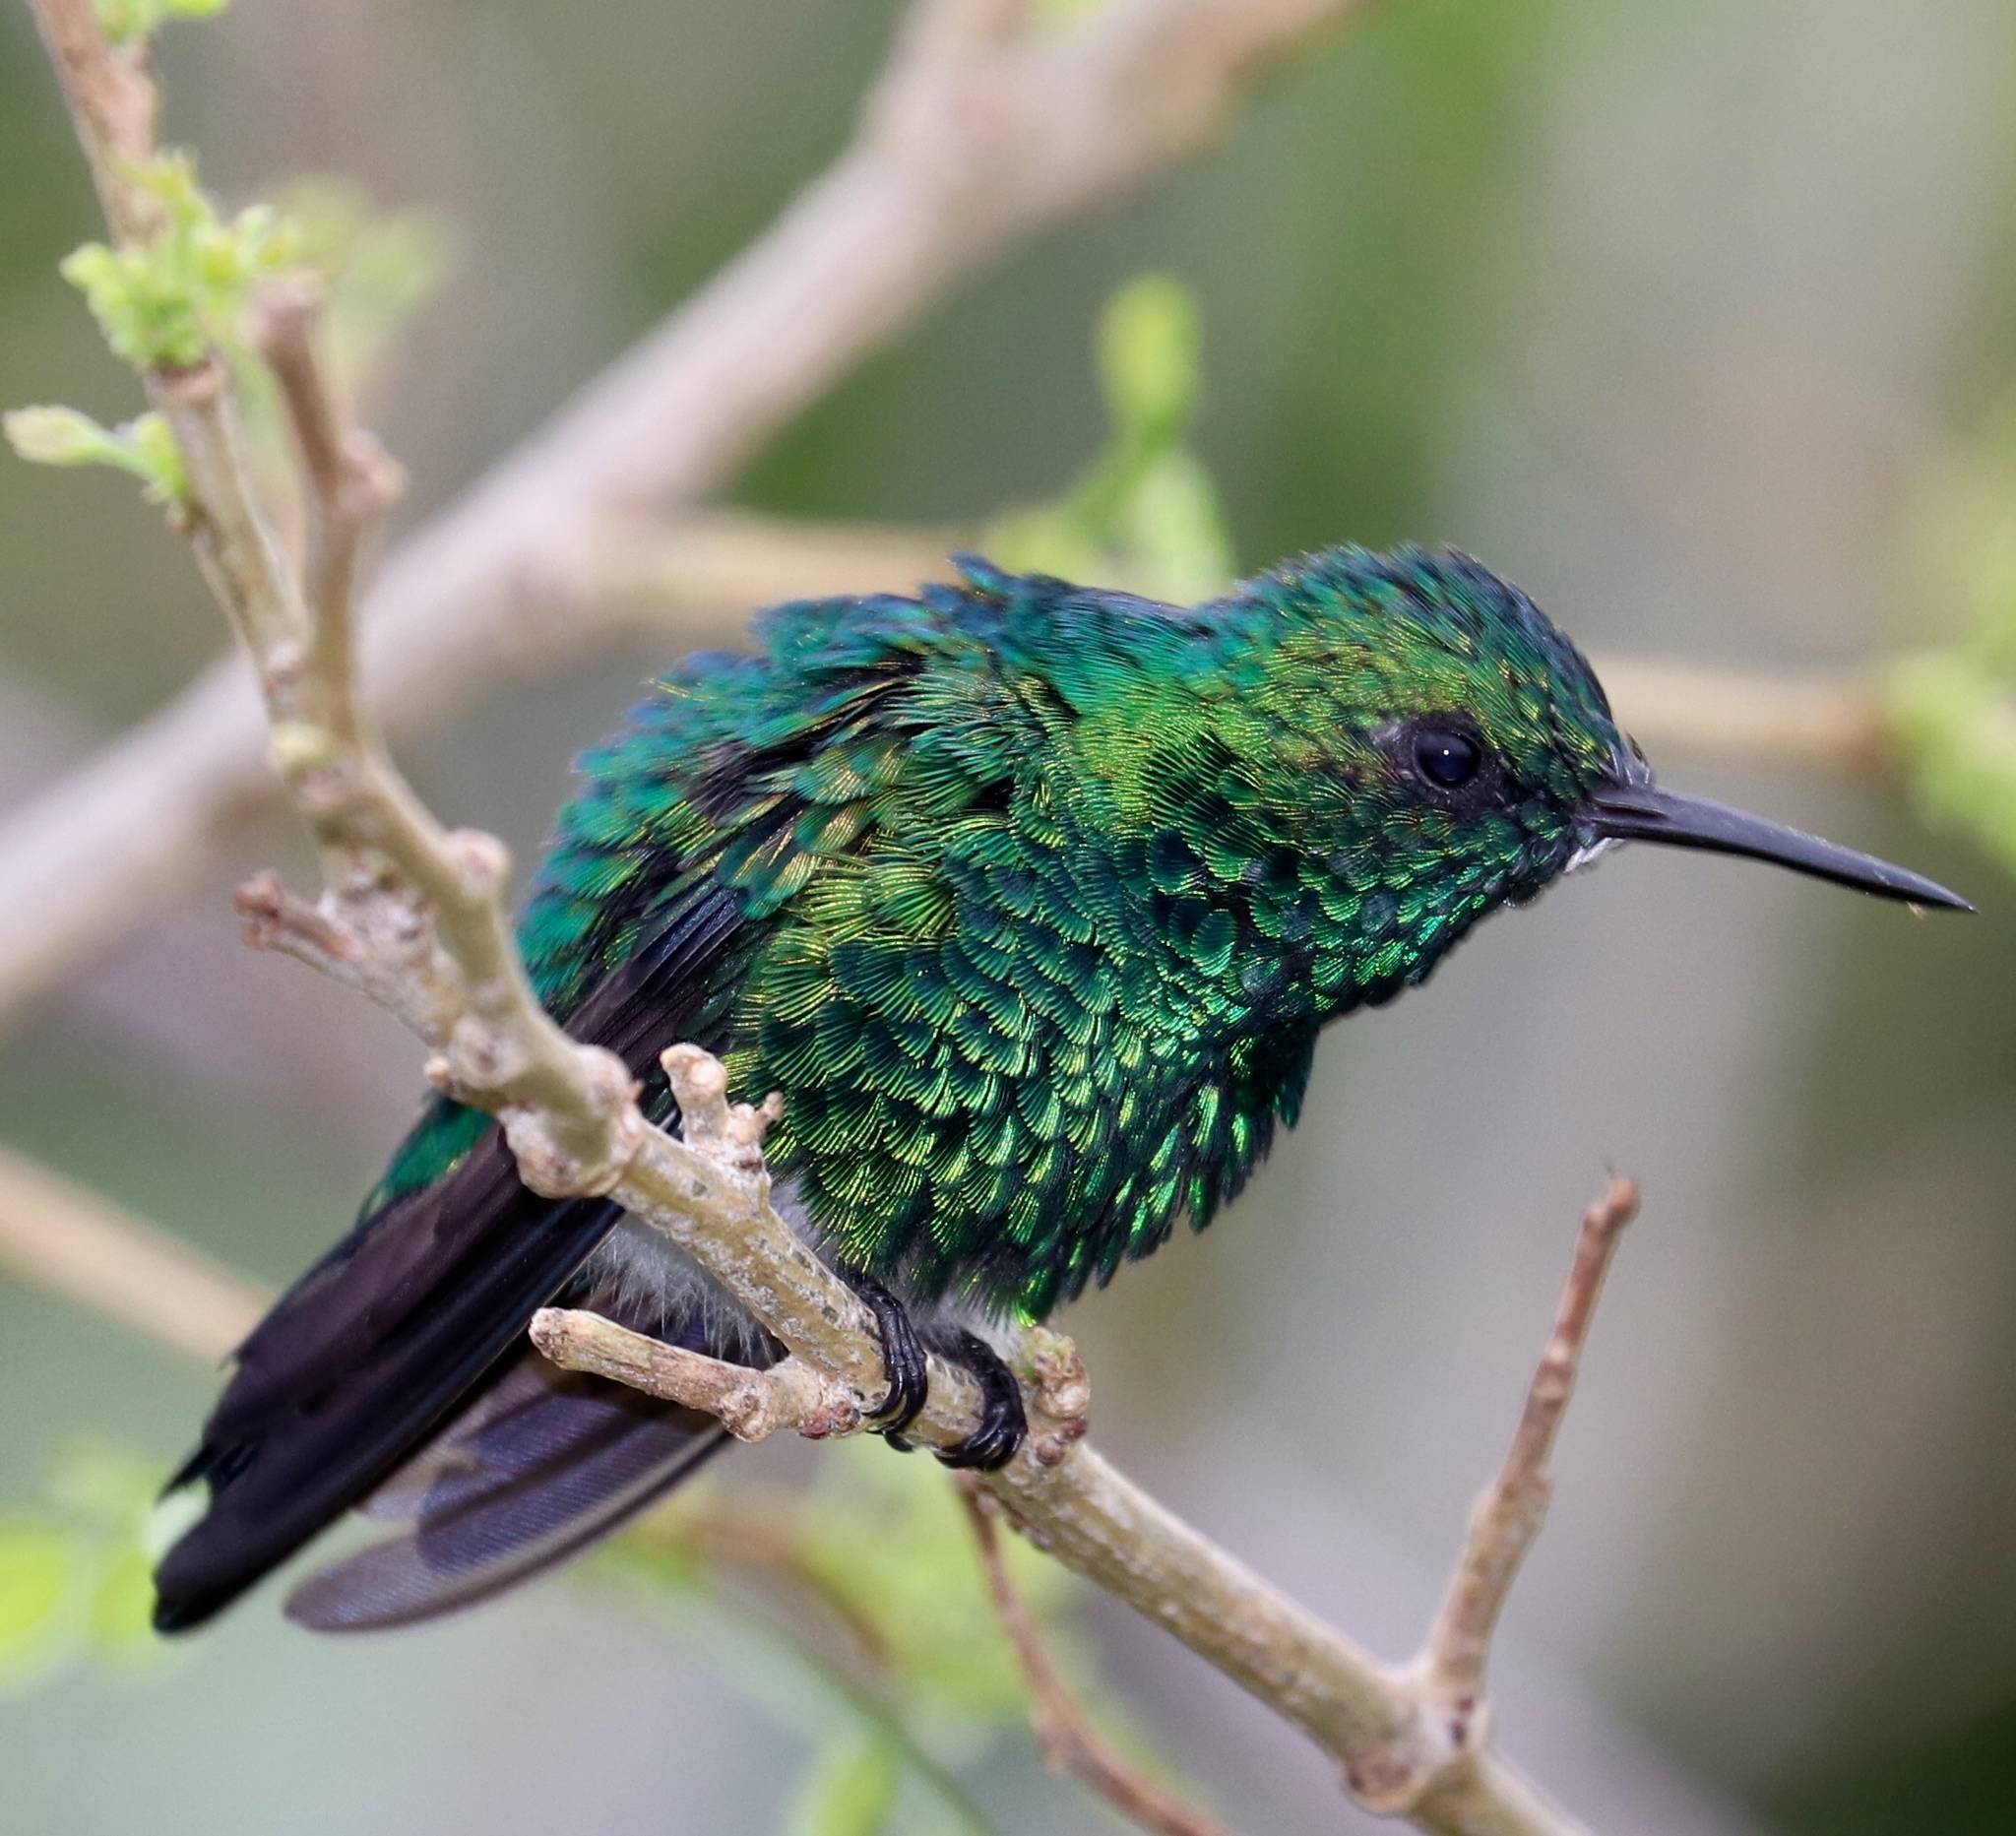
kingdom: Animalia
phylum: Chordata
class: Aves
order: Apodiformes
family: Trochilidae
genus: Chlorostilbon
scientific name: Chlorostilbon assimilis
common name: Garden emerald
